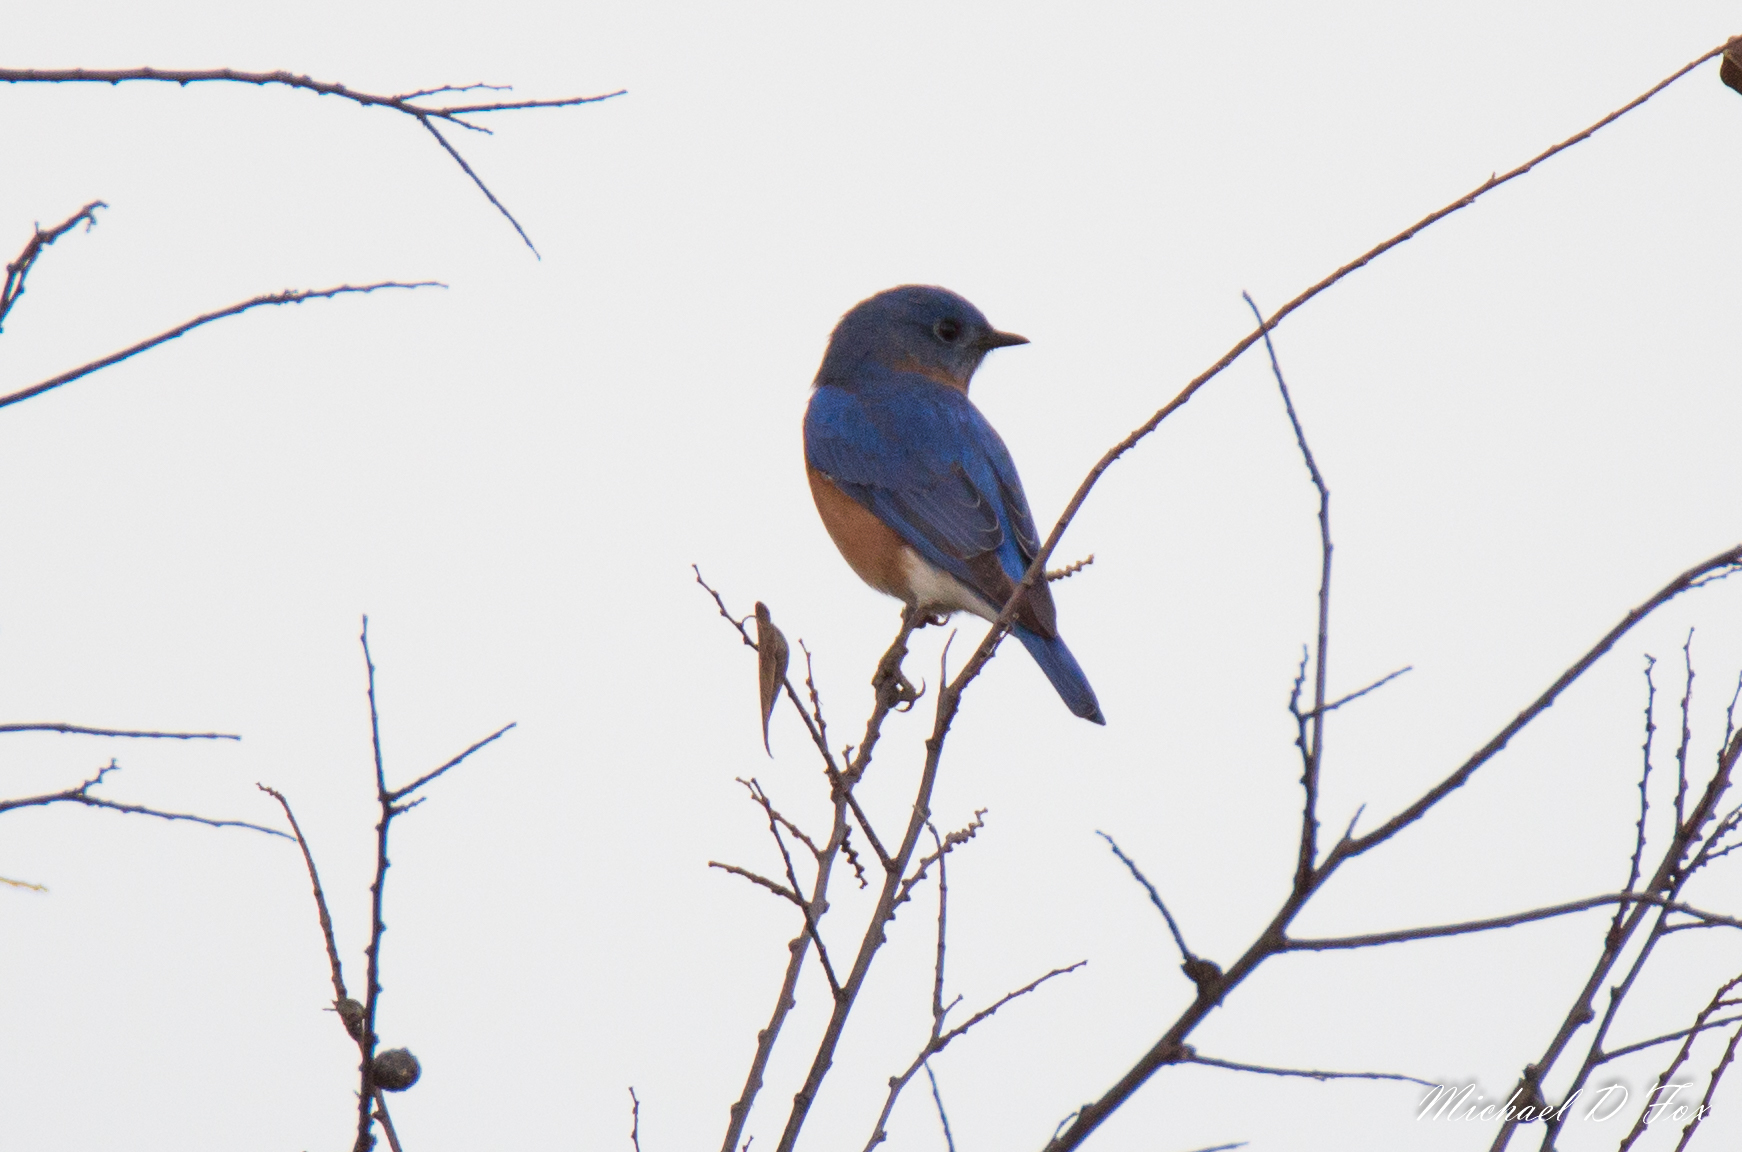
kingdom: Animalia
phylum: Chordata
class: Aves
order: Passeriformes
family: Turdidae
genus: Sialia
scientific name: Sialia sialis
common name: Eastern bluebird
